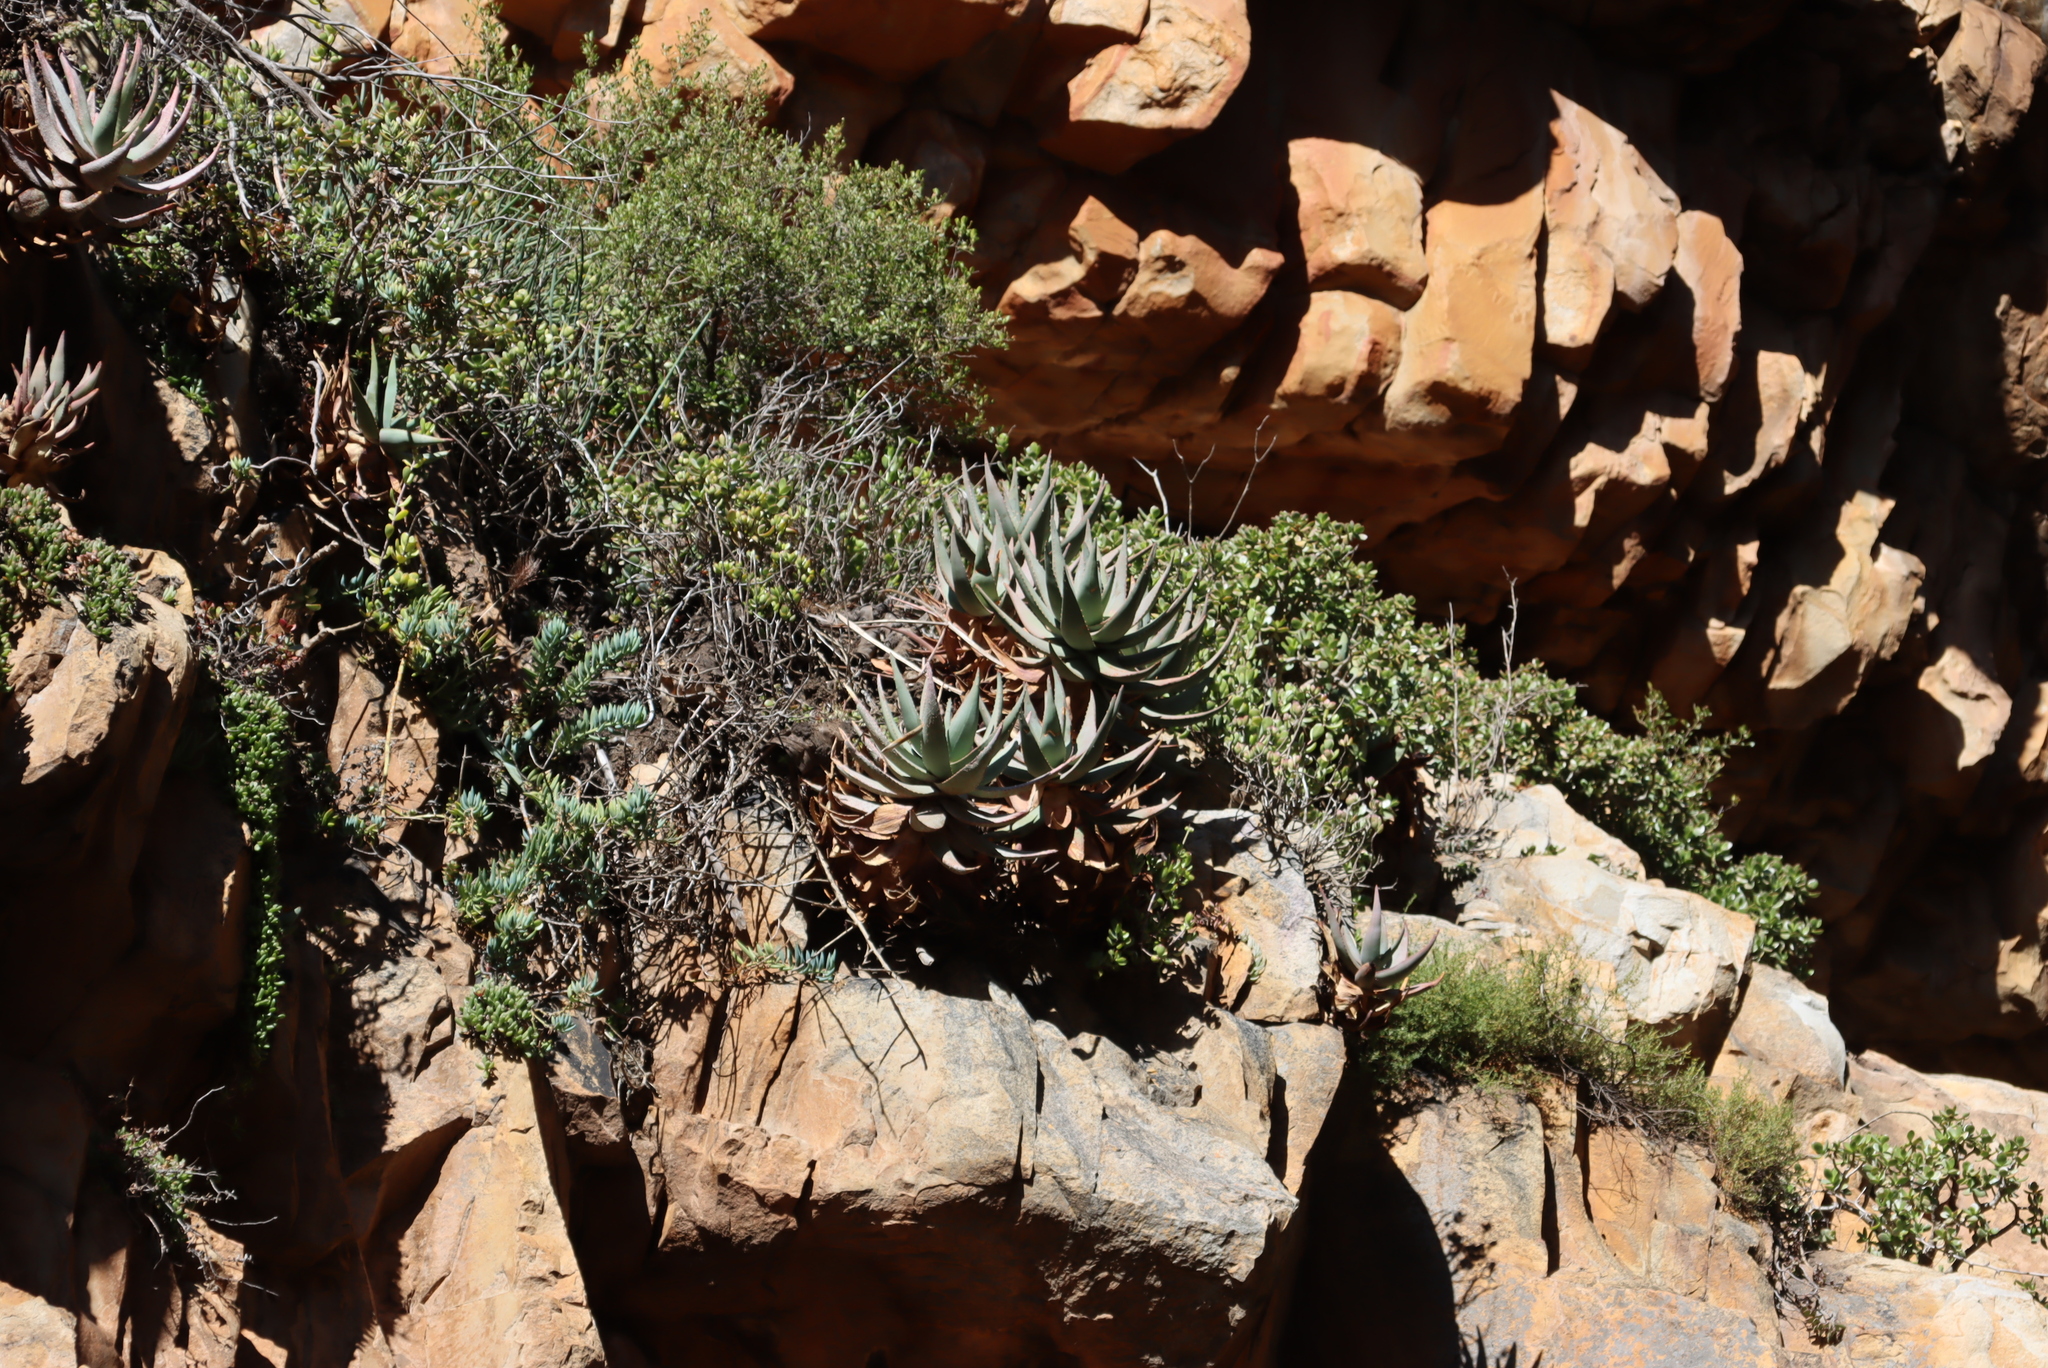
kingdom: Plantae
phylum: Tracheophyta
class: Liliopsida
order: Asparagales
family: Asphodelaceae
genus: Aloe
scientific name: Aloe comptonii
